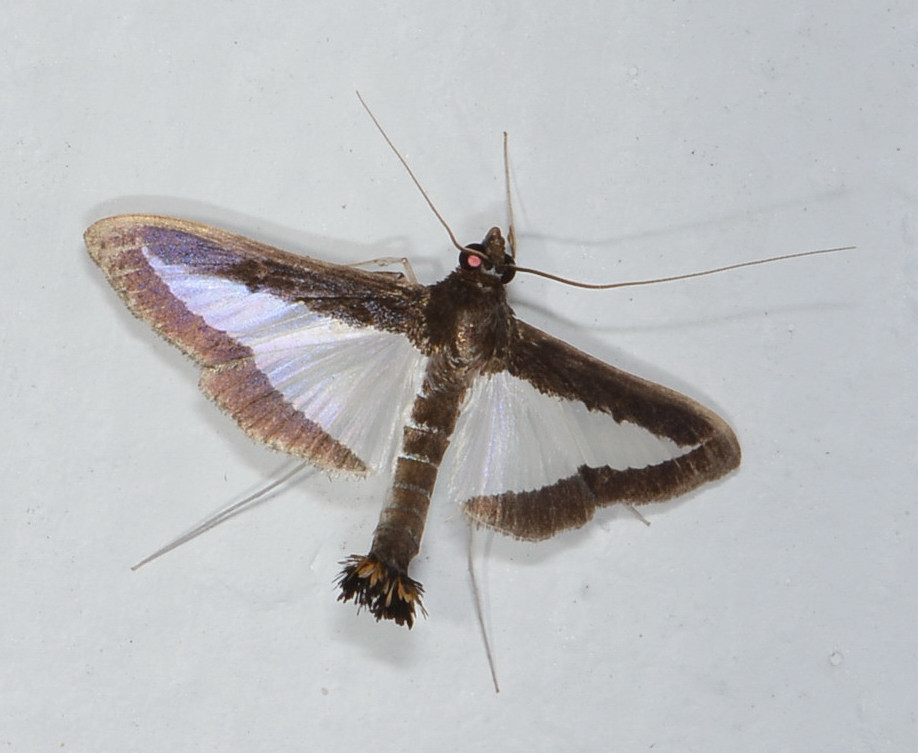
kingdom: Animalia
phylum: Arthropoda
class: Insecta
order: Lepidoptera
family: Crambidae
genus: Diaphania
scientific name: Diaphania indica
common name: Cucumber moth
